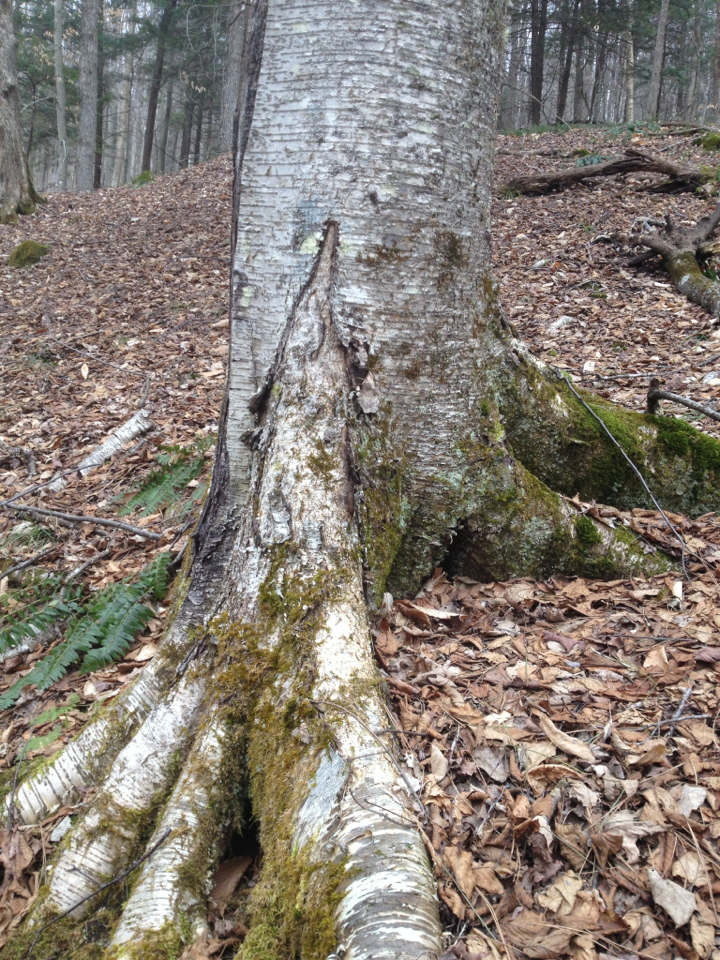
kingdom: Plantae
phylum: Tracheophyta
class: Magnoliopsida
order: Fagales
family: Betulaceae
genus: Betula
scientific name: Betula alleghaniensis
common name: Yellow birch
